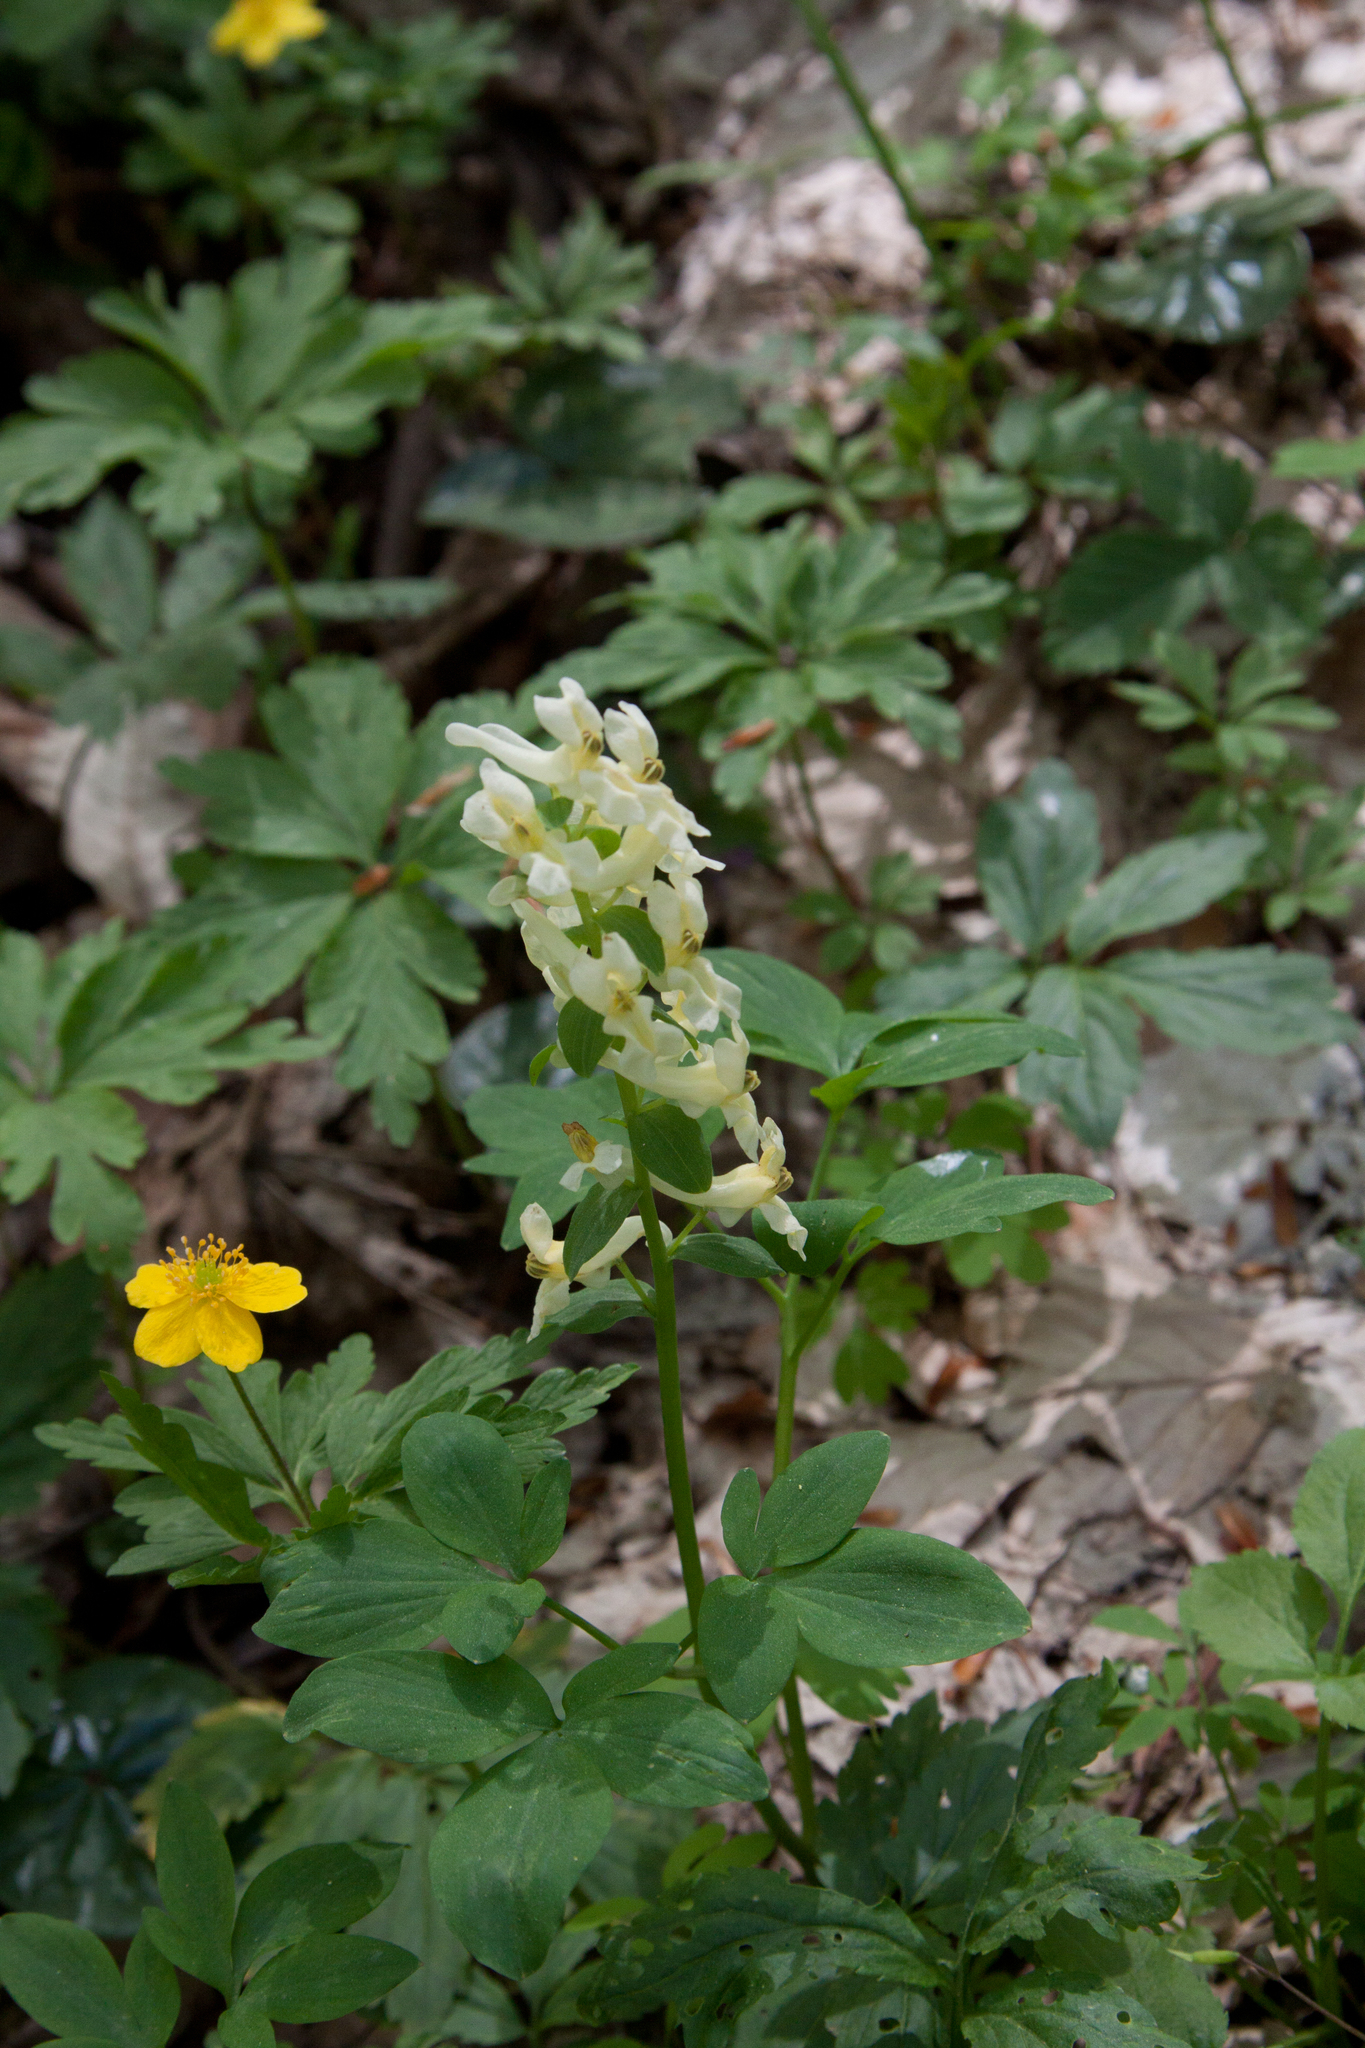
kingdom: Plantae
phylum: Tracheophyta
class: Magnoliopsida
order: Ranunculales
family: Papaveraceae
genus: Corydalis
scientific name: Corydalis cava
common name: Hollowroot
